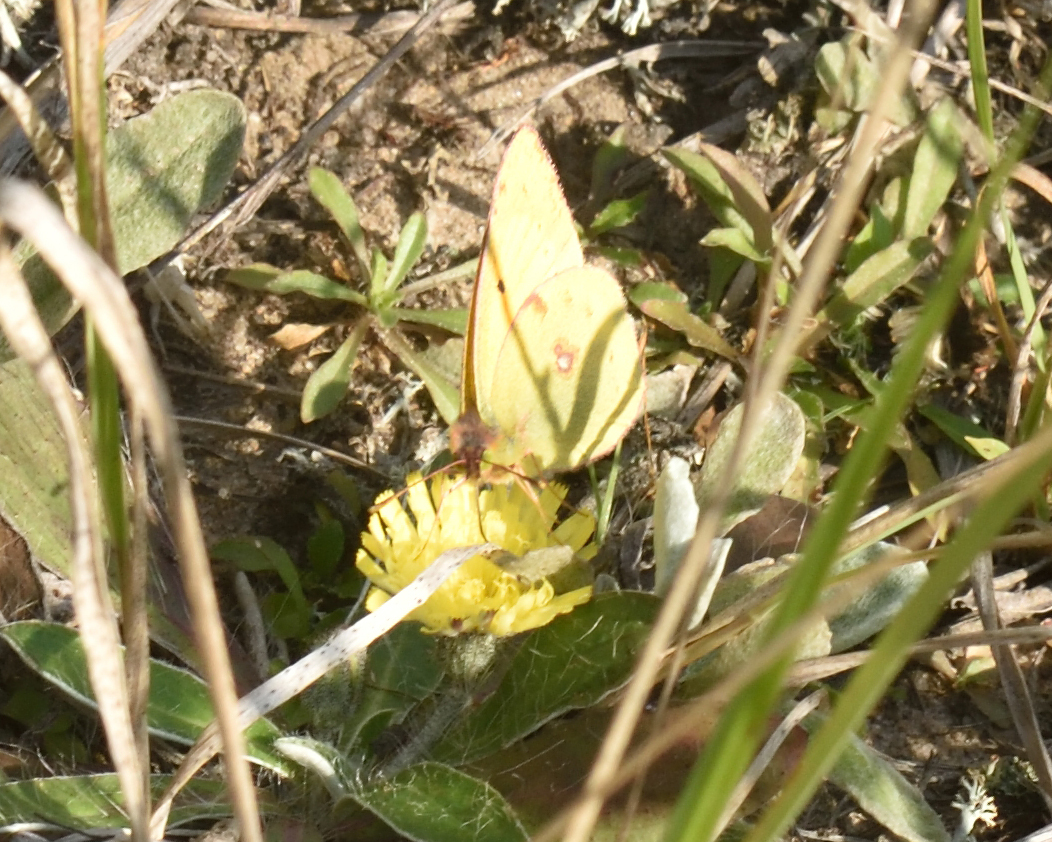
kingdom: Animalia
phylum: Arthropoda
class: Insecta
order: Lepidoptera
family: Pieridae
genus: Colias
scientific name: Colias myrmidone
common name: Danube clouded yellow
